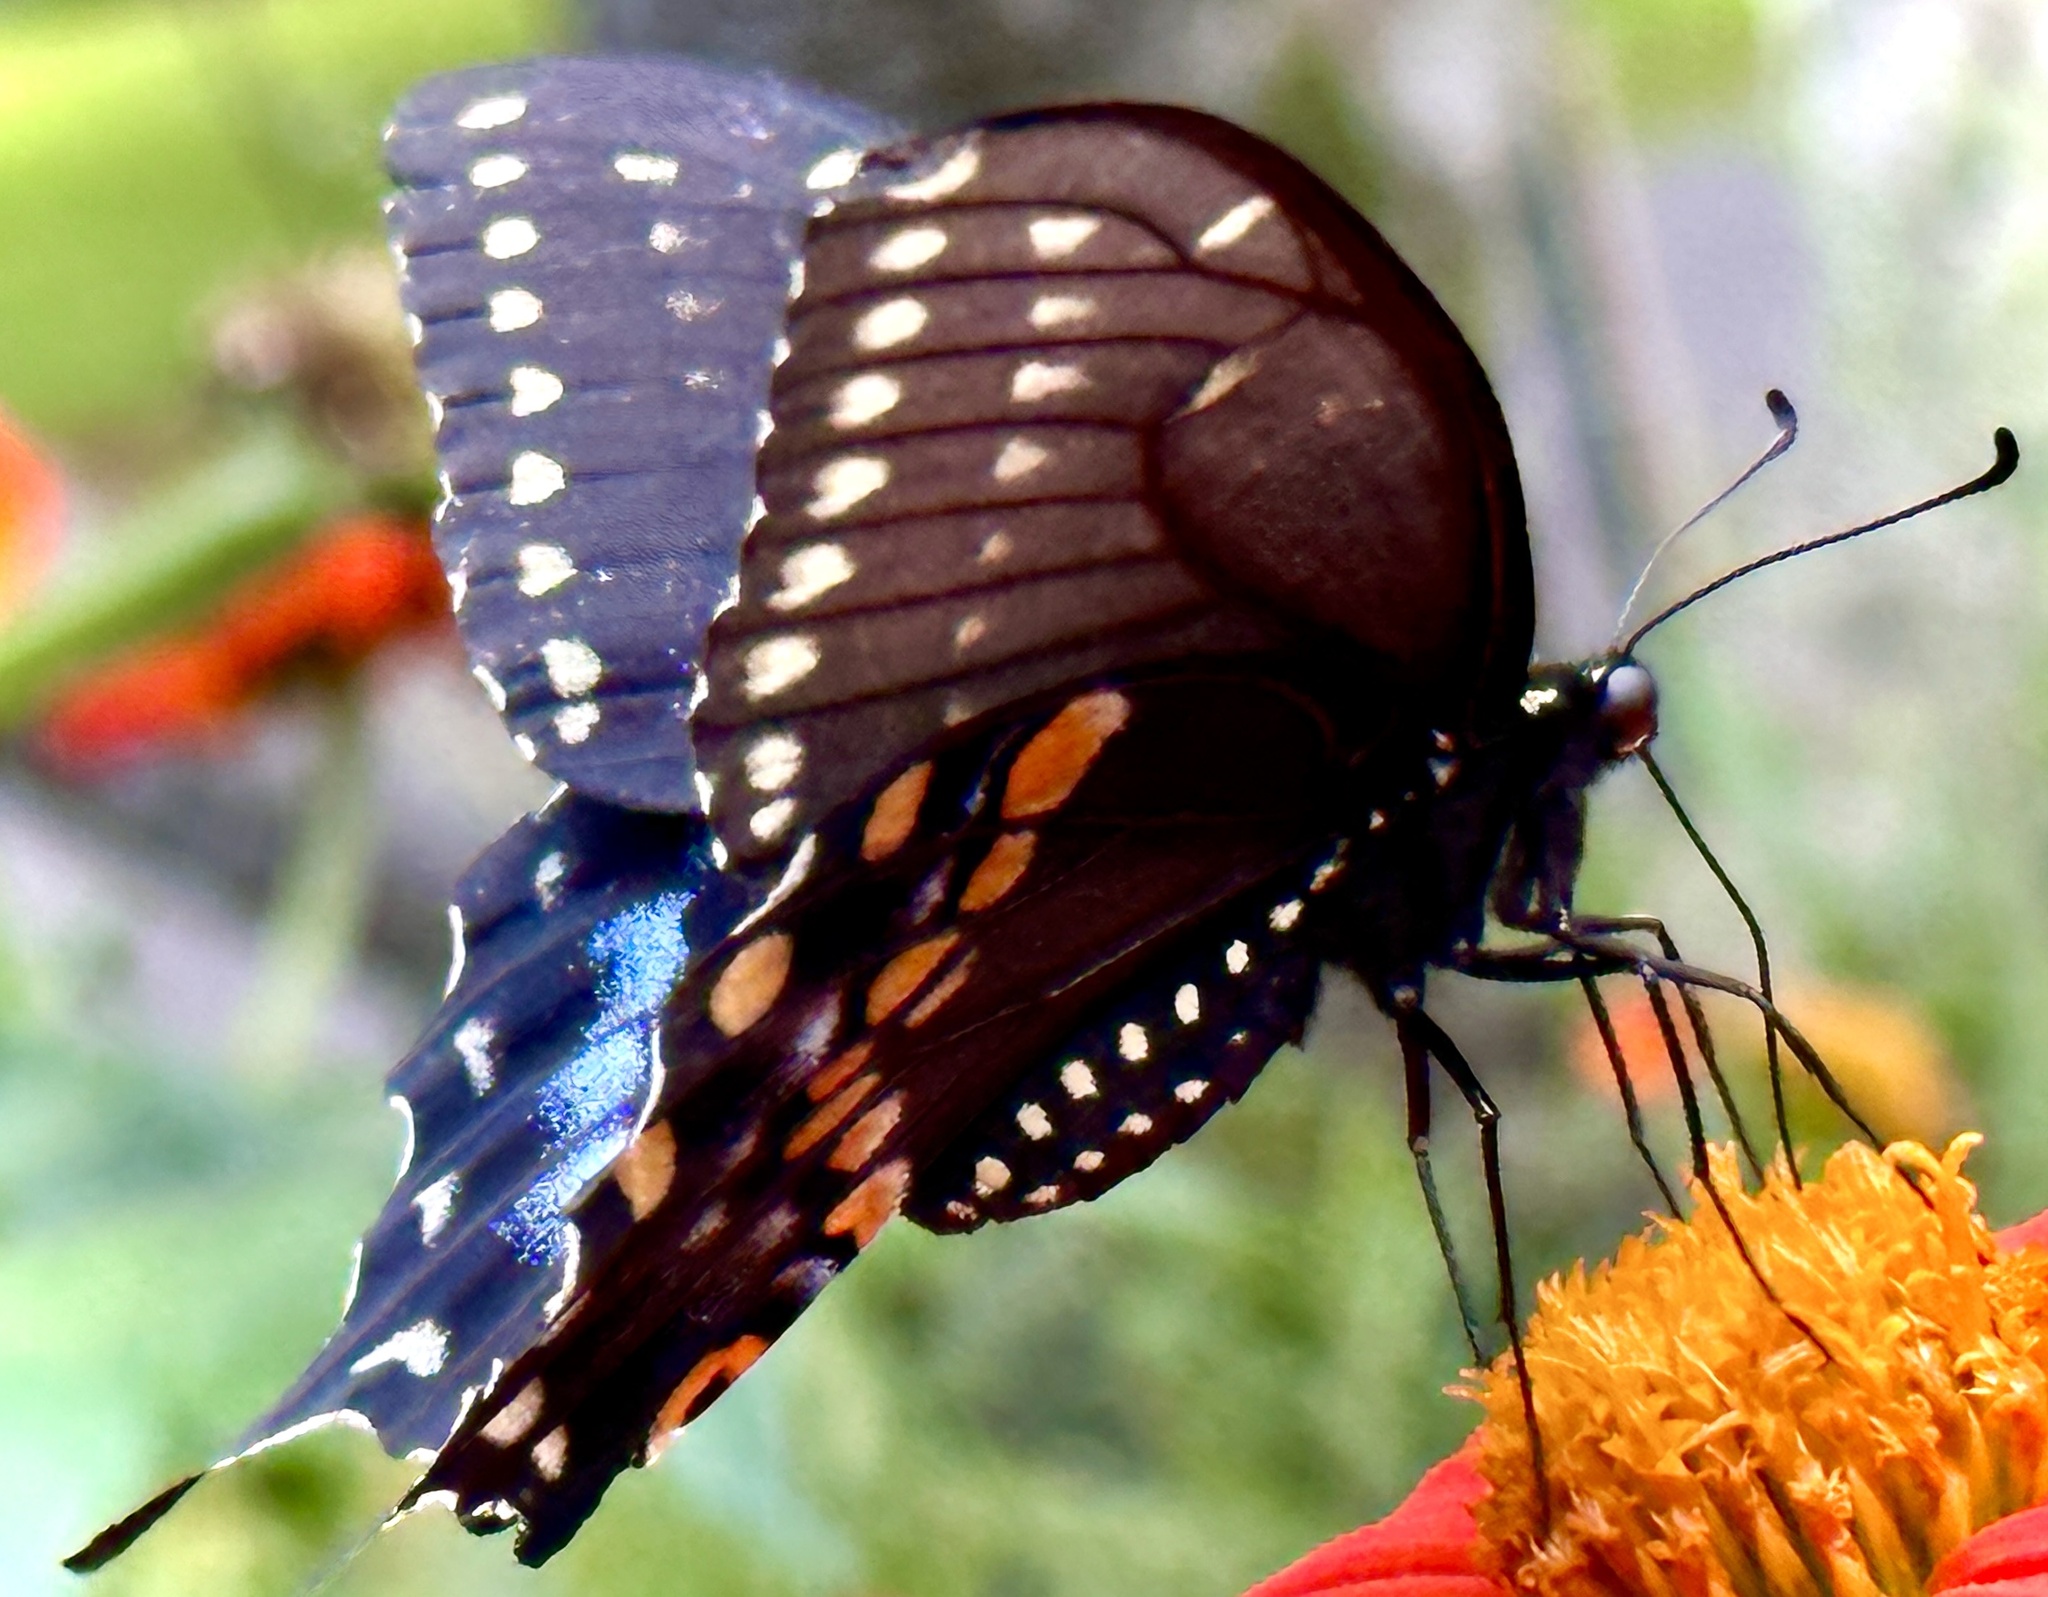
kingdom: Animalia
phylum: Arthropoda
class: Insecta
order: Lepidoptera
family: Papilionidae
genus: Papilio
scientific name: Papilio polyxenes
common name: Black swallowtail
